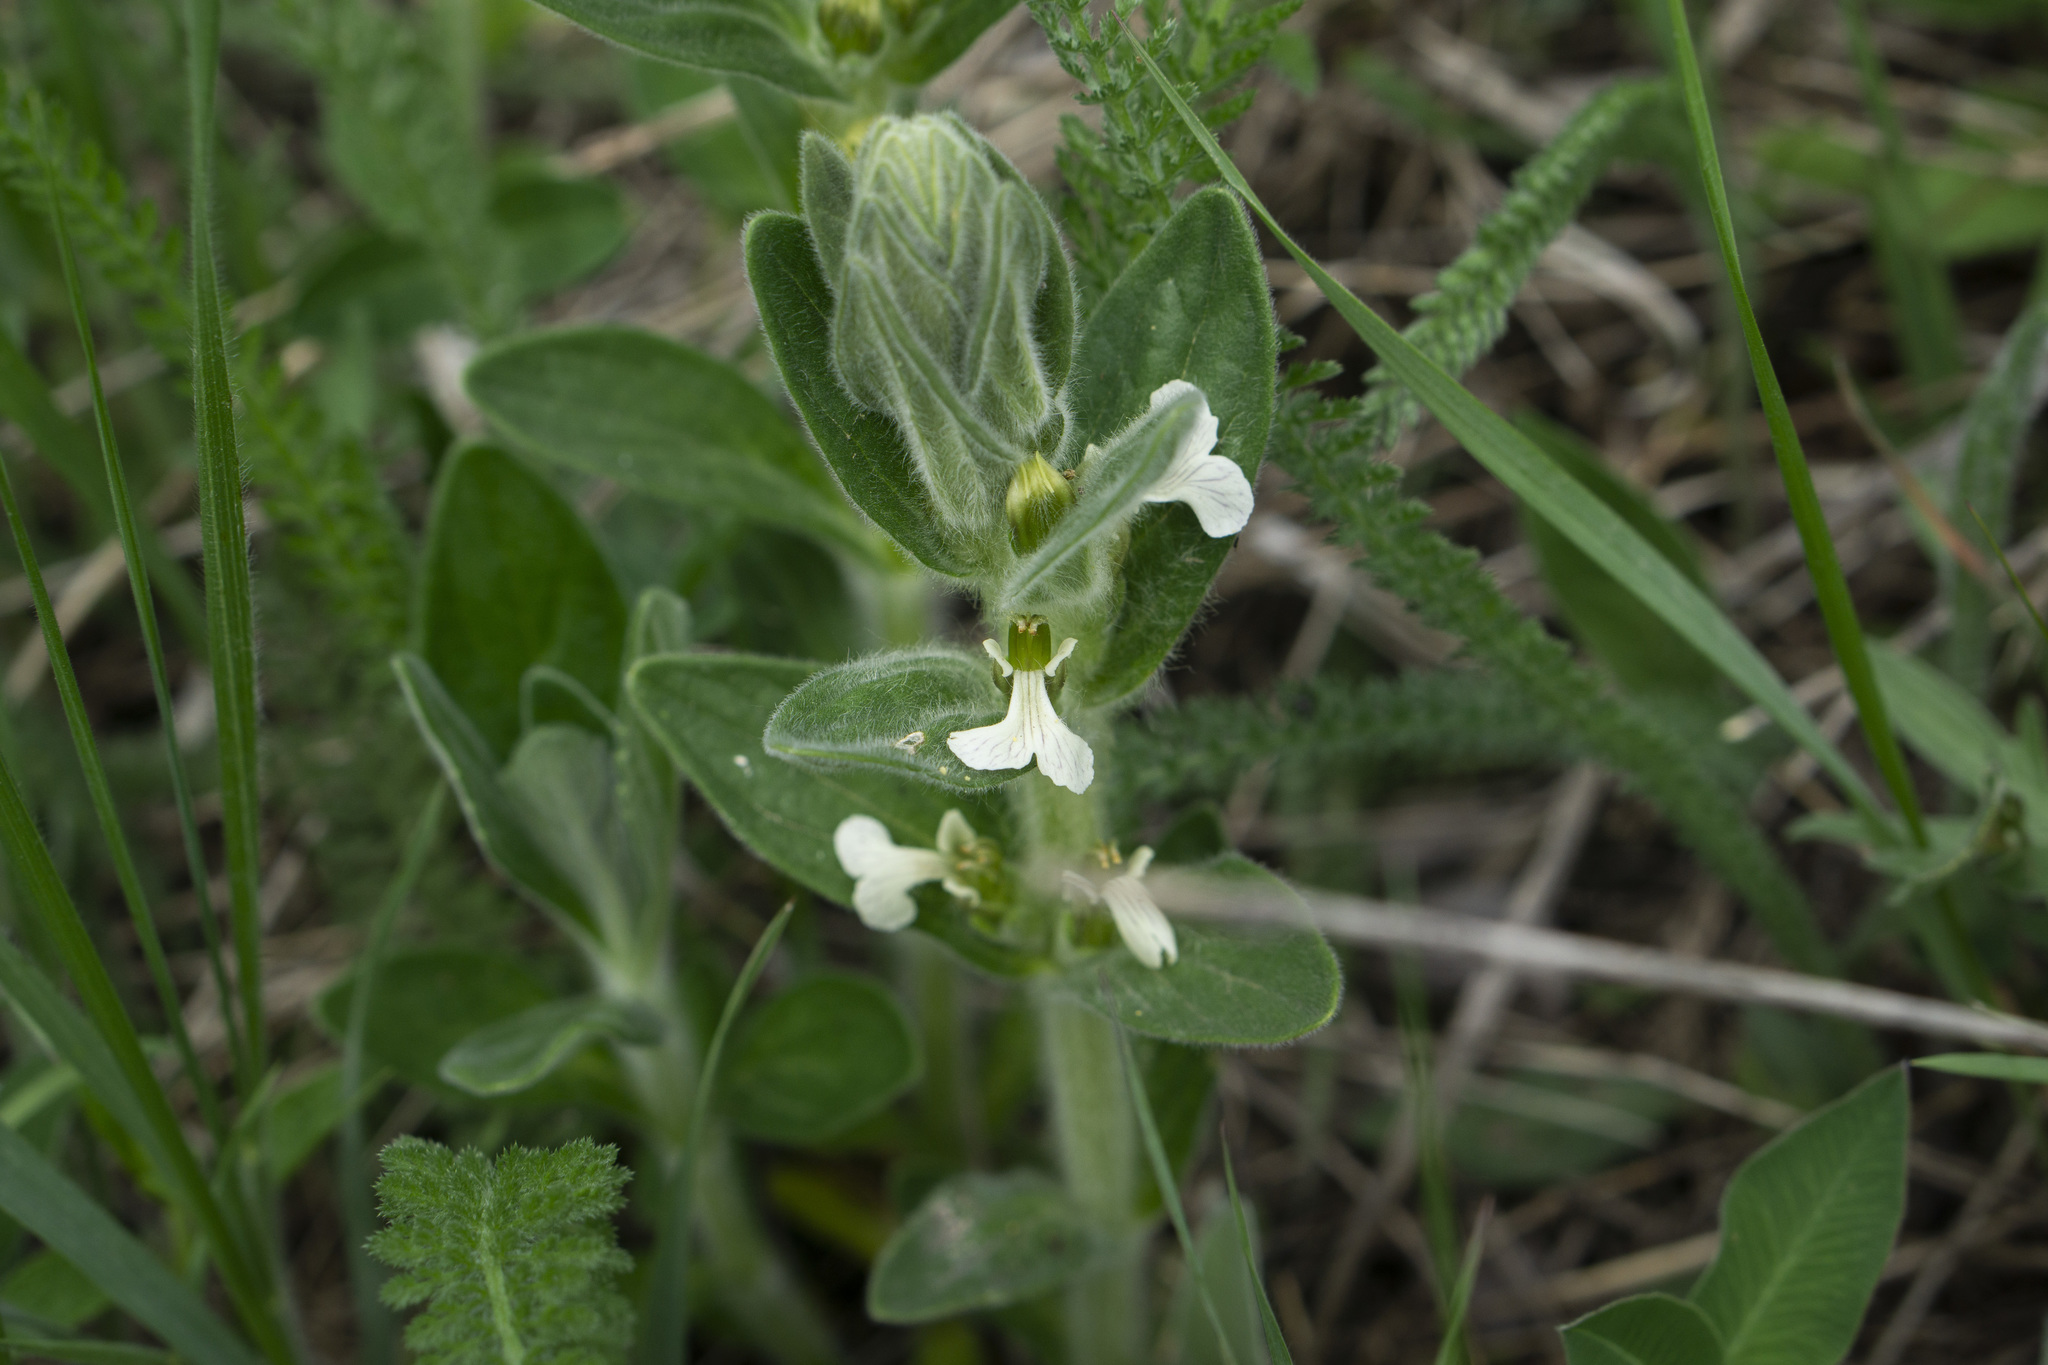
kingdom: Plantae
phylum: Tracheophyta
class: Magnoliopsida
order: Lamiales
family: Lamiaceae
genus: Ajuga
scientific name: Ajuga laxmannii
